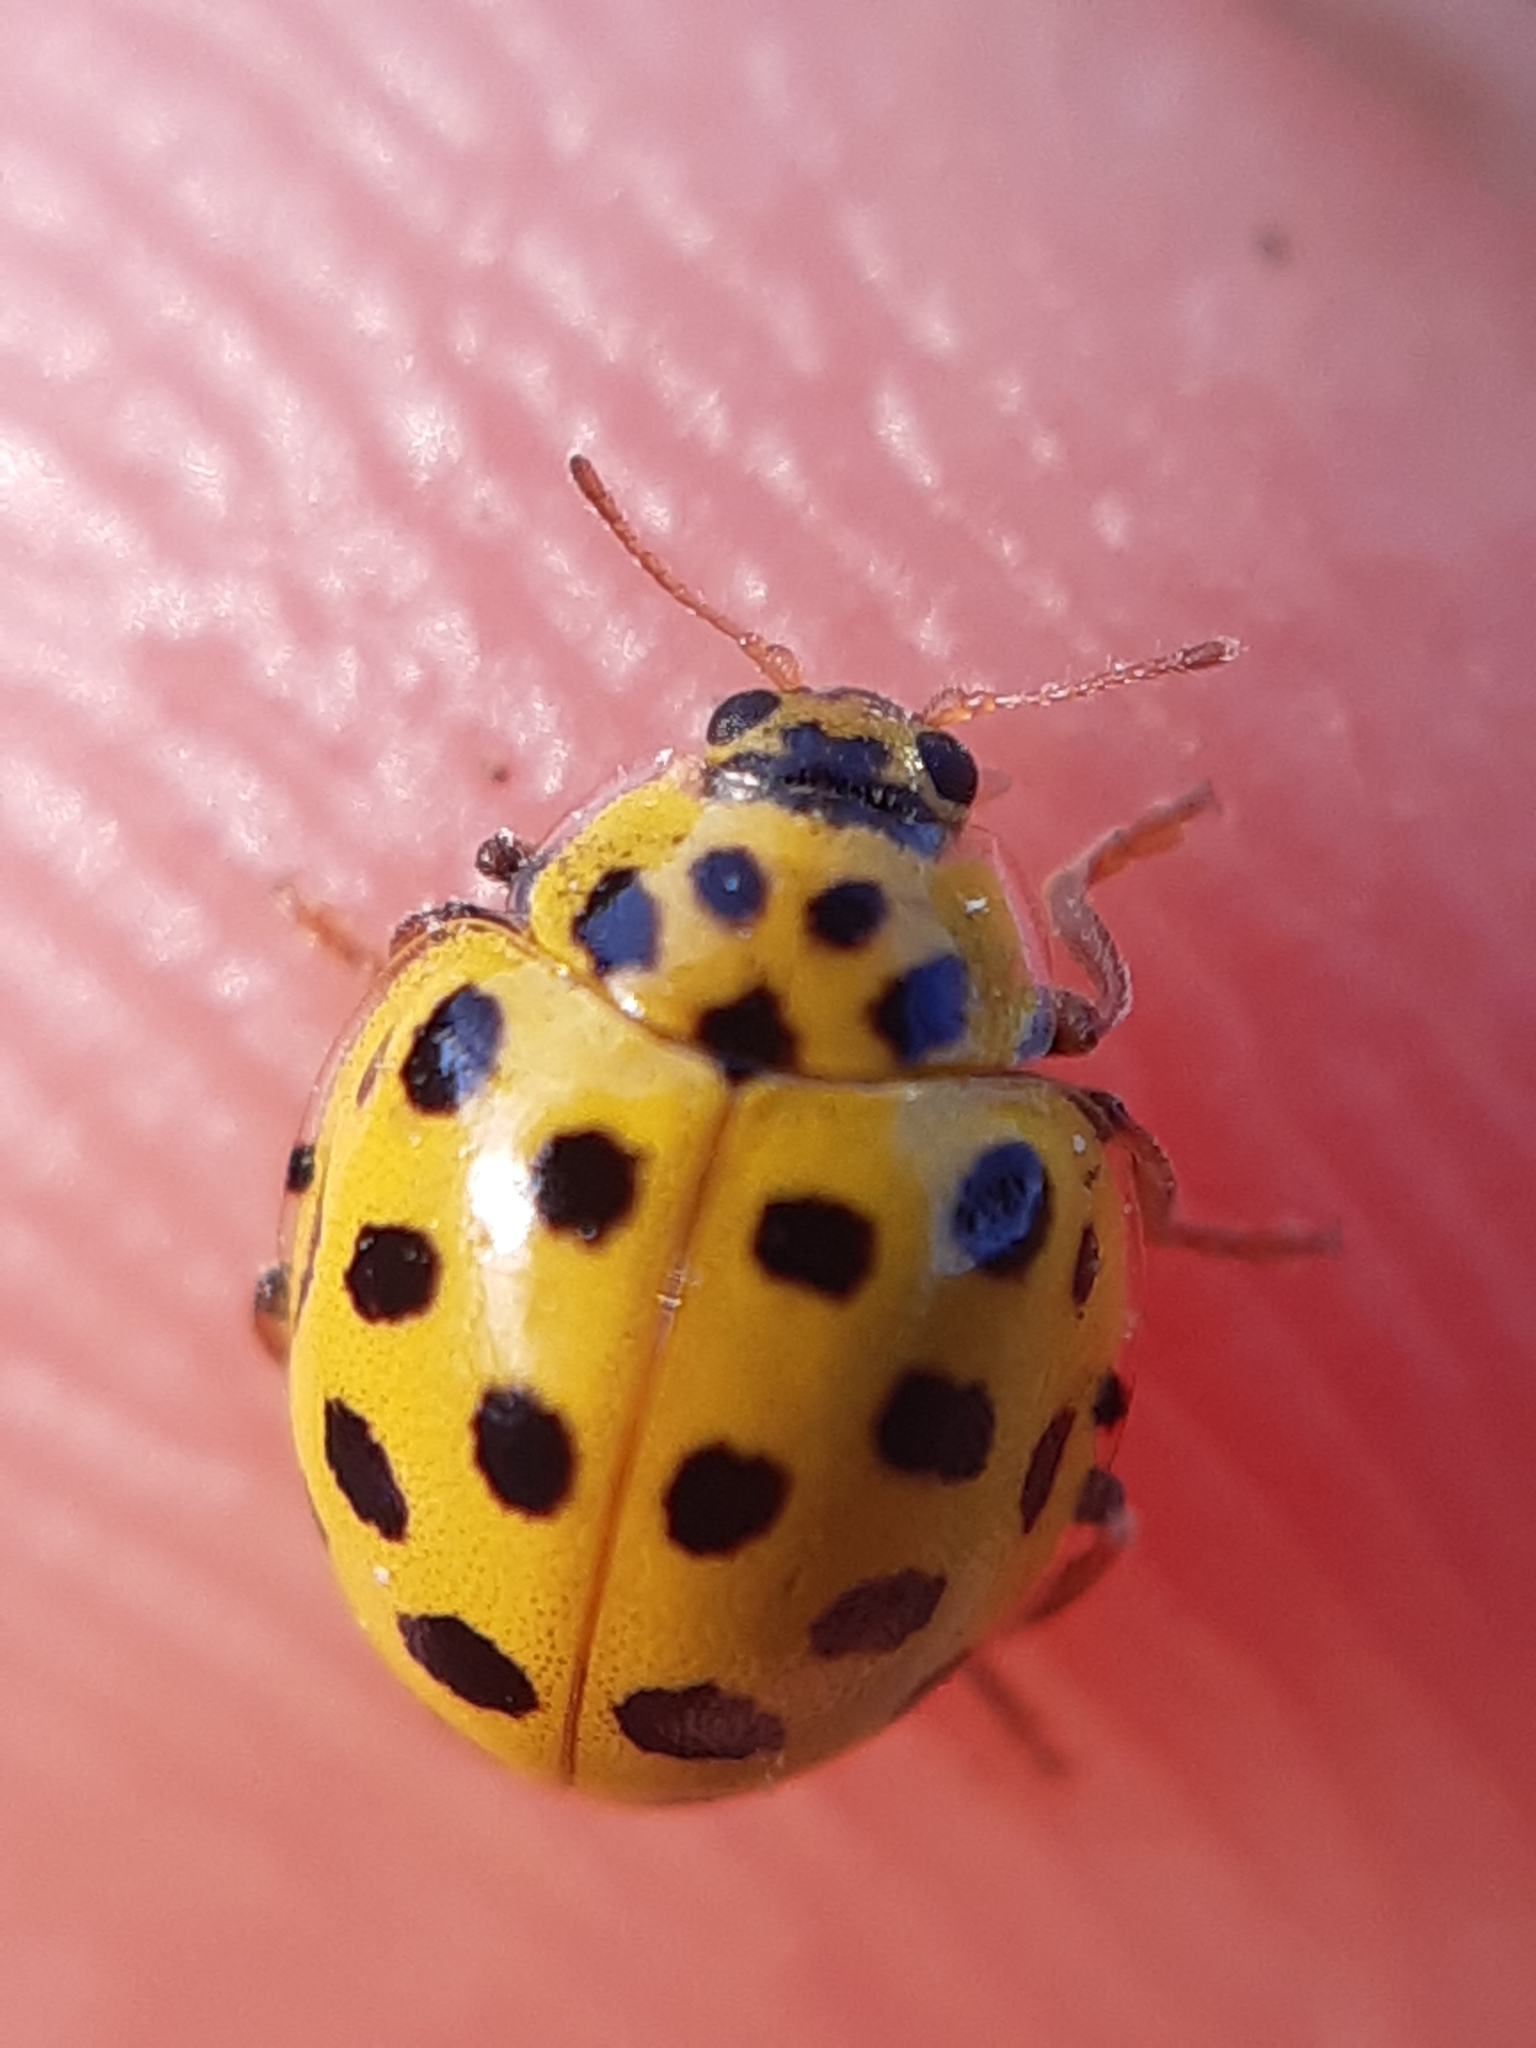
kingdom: Animalia
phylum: Arthropoda
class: Insecta
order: Coleoptera
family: Coccinellidae
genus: Psyllobora
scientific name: Psyllobora vigintiduopunctata
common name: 22-spot ladybird
